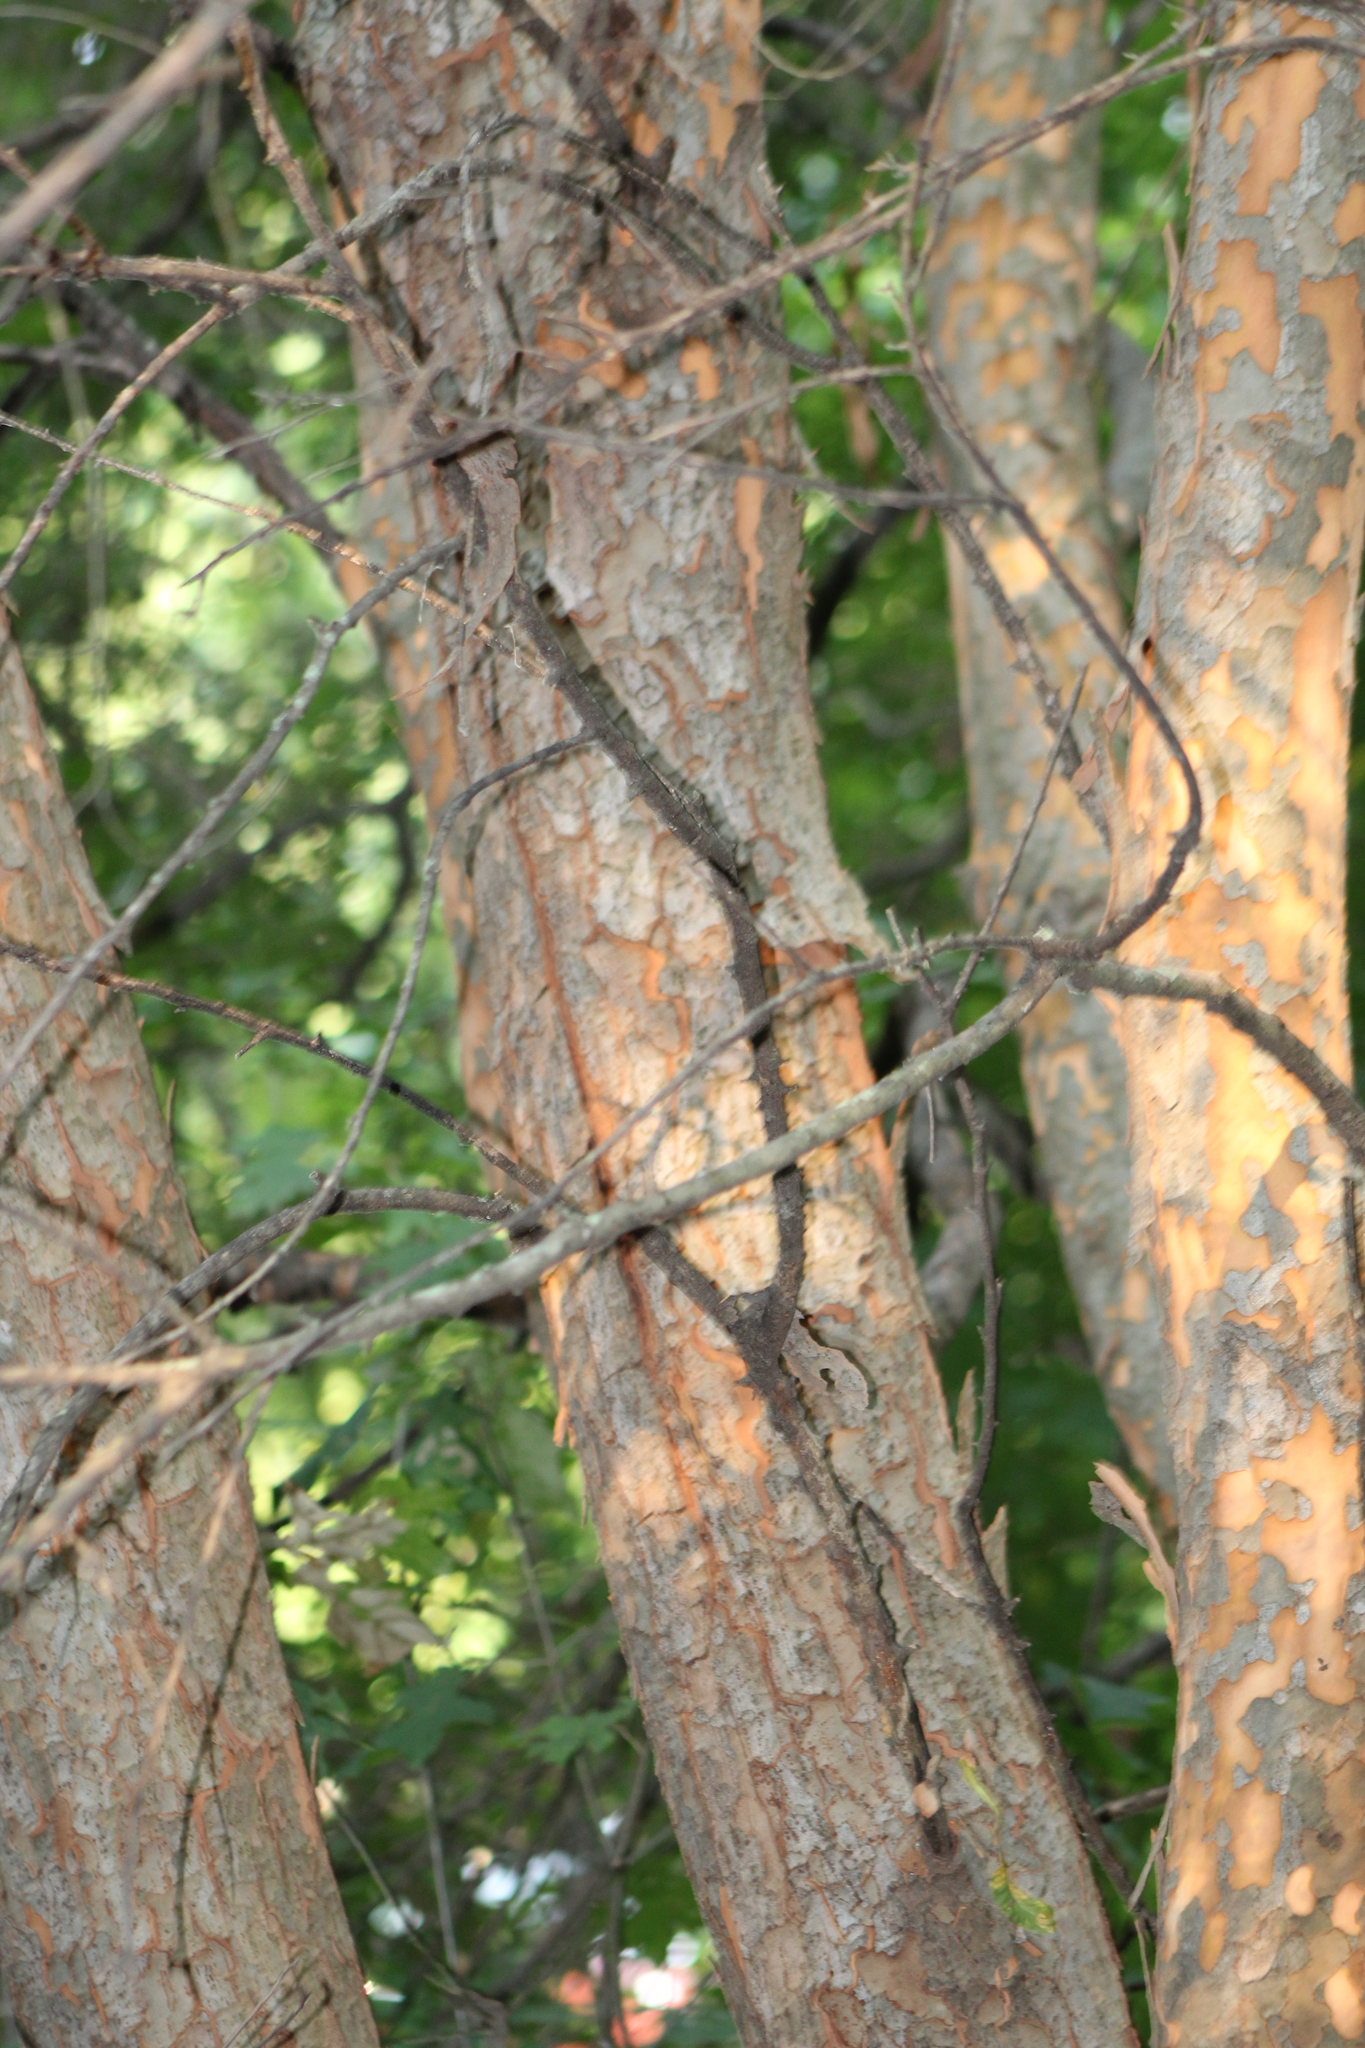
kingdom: Plantae
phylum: Tracheophyta
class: Magnoliopsida
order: Rosales
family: Ulmaceae
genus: Ulmus
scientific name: Ulmus parvifolia
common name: Chinese elm
